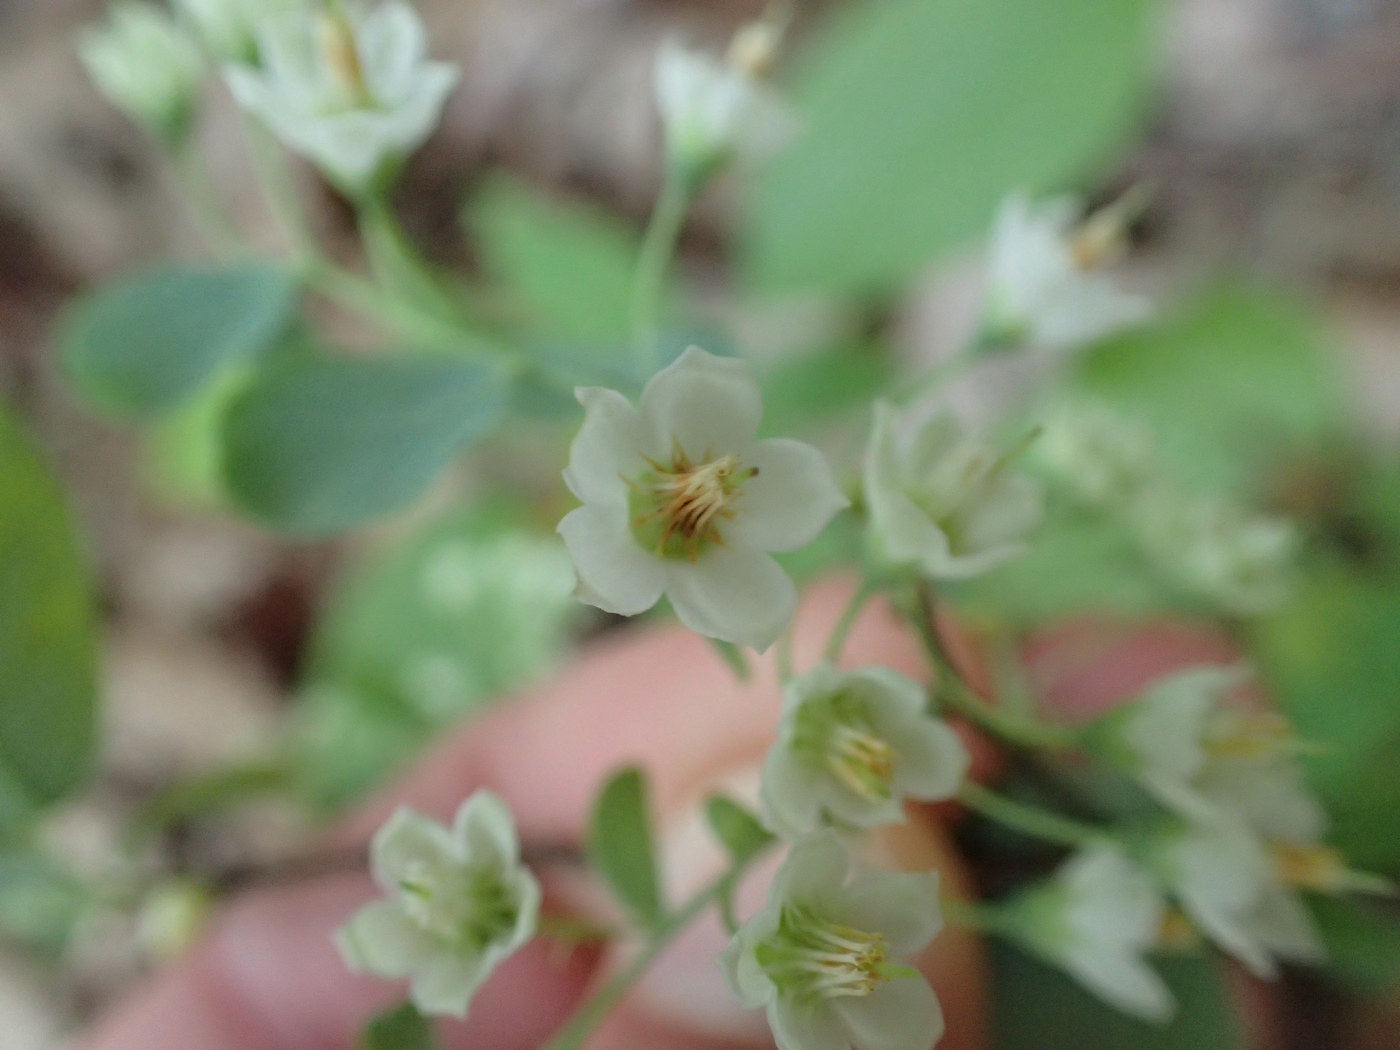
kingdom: Plantae
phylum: Tracheophyta
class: Magnoliopsida
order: Ericales
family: Ericaceae
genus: Vaccinium
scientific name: Vaccinium stamineum
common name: Deerberry
